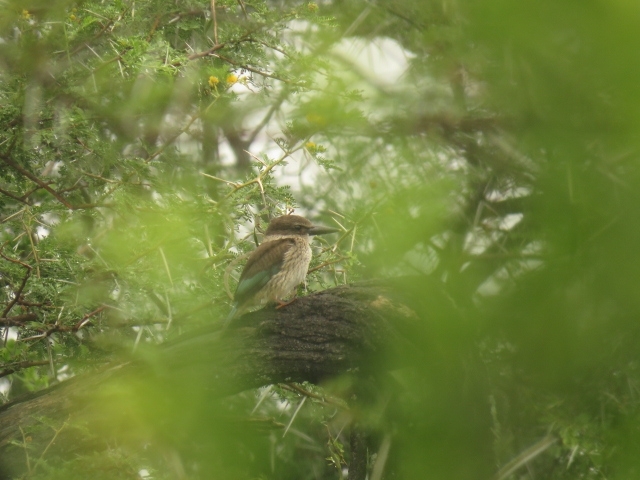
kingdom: Animalia
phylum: Chordata
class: Aves
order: Coraciiformes
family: Alcedinidae
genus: Halcyon
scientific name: Halcyon albiventris
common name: Brown-hooded kingfisher
